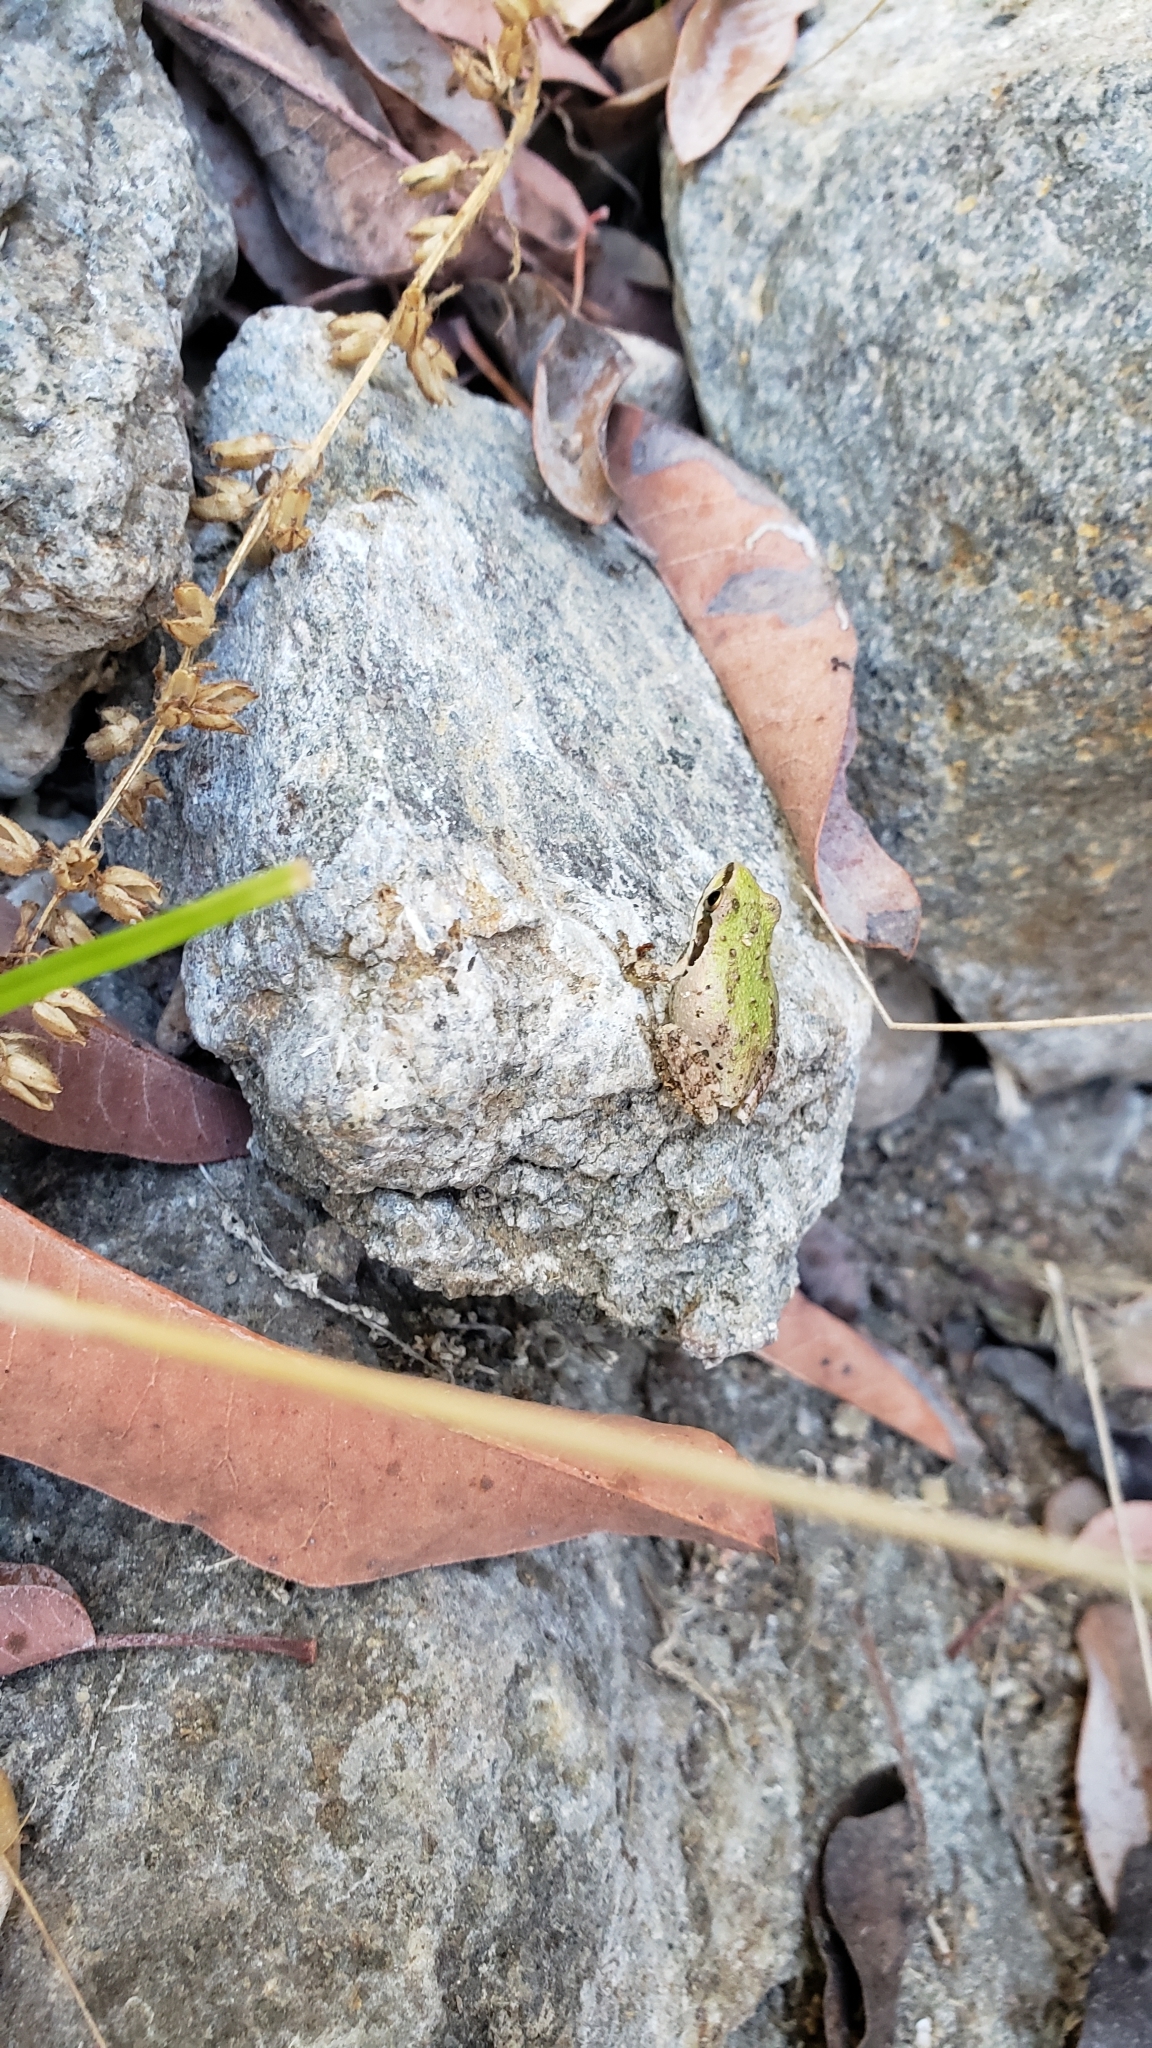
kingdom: Animalia
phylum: Chordata
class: Amphibia
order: Anura
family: Hylidae
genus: Pseudacris
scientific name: Pseudacris regilla
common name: Pacific chorus frog
